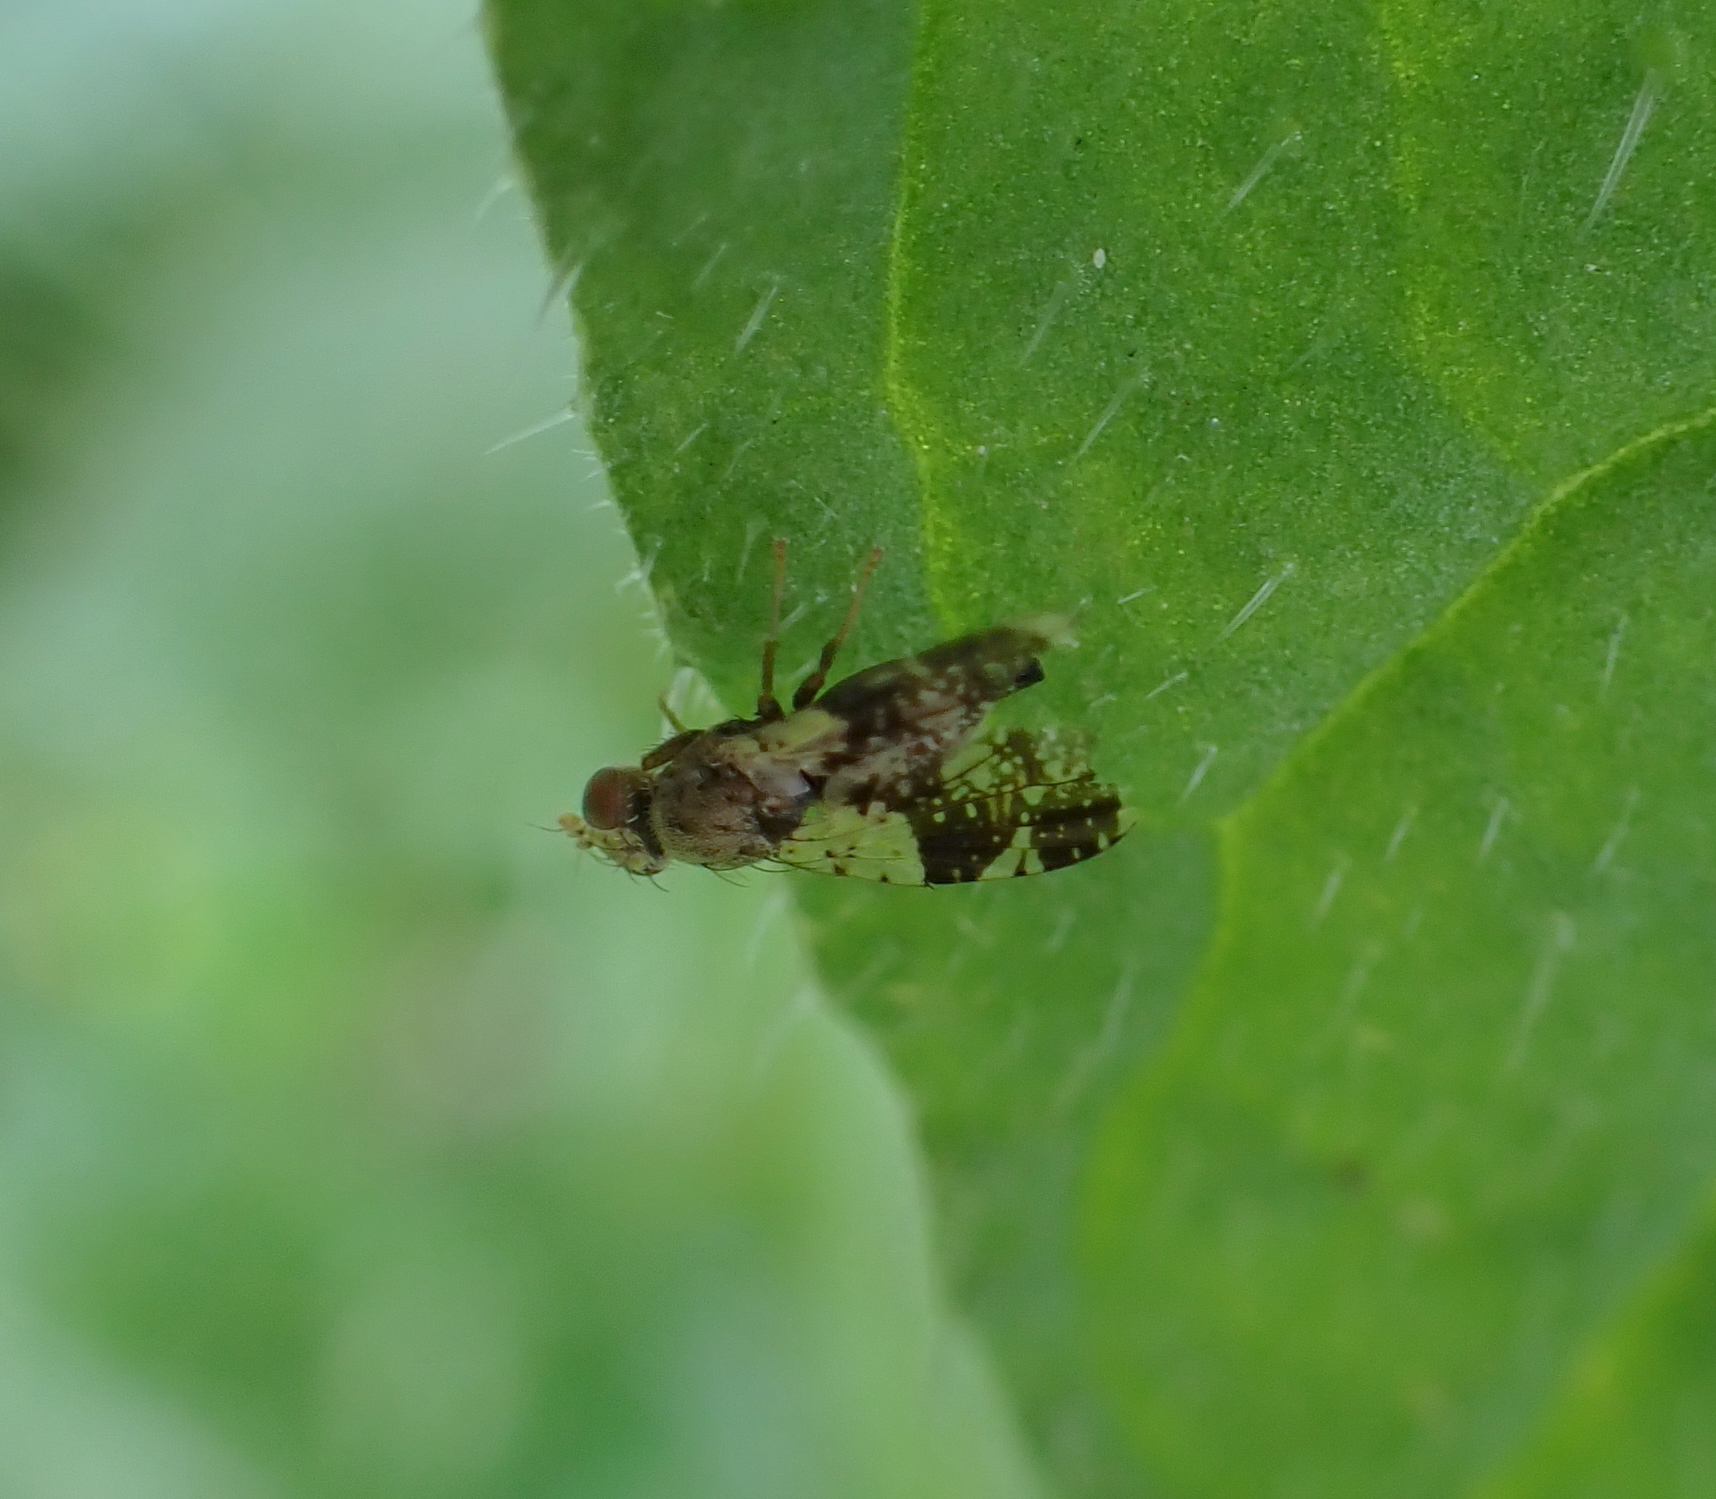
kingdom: Animalia
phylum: Arthropoda
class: Insecta
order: Diptera
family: Tephritidae
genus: Tephritis
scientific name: Tephritis formosa
